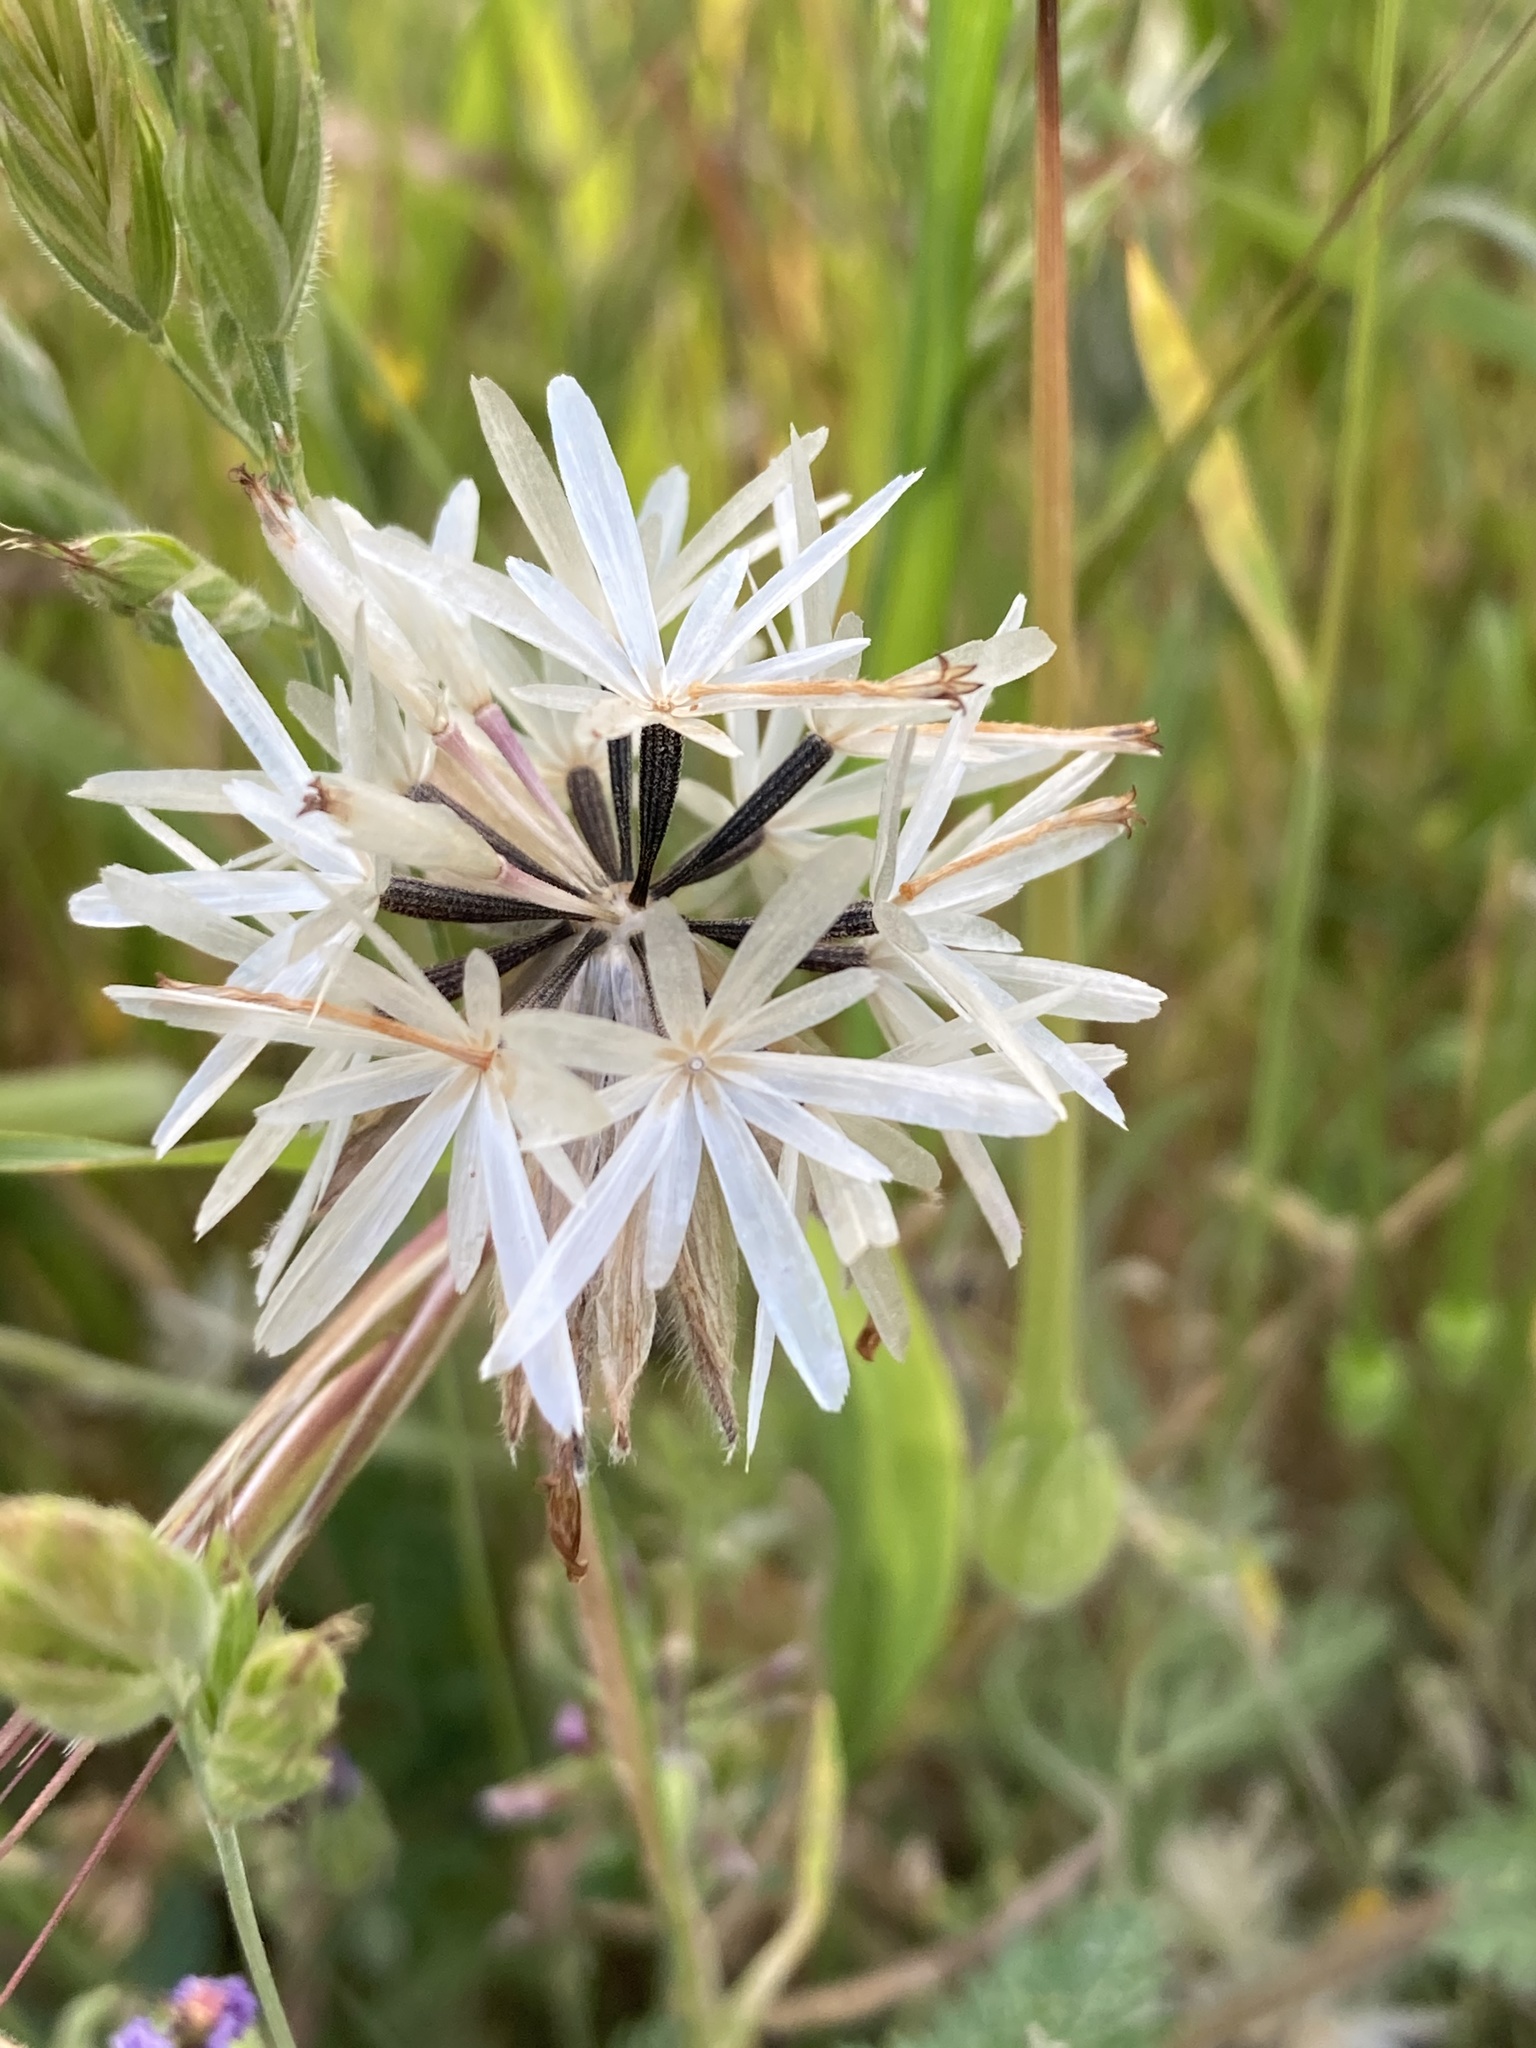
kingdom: Plantae
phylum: Tracheophyta
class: Magnoliopsida
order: Asterales
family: Asteraceae
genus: Achyrachaena
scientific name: Achyrachaena mollis
